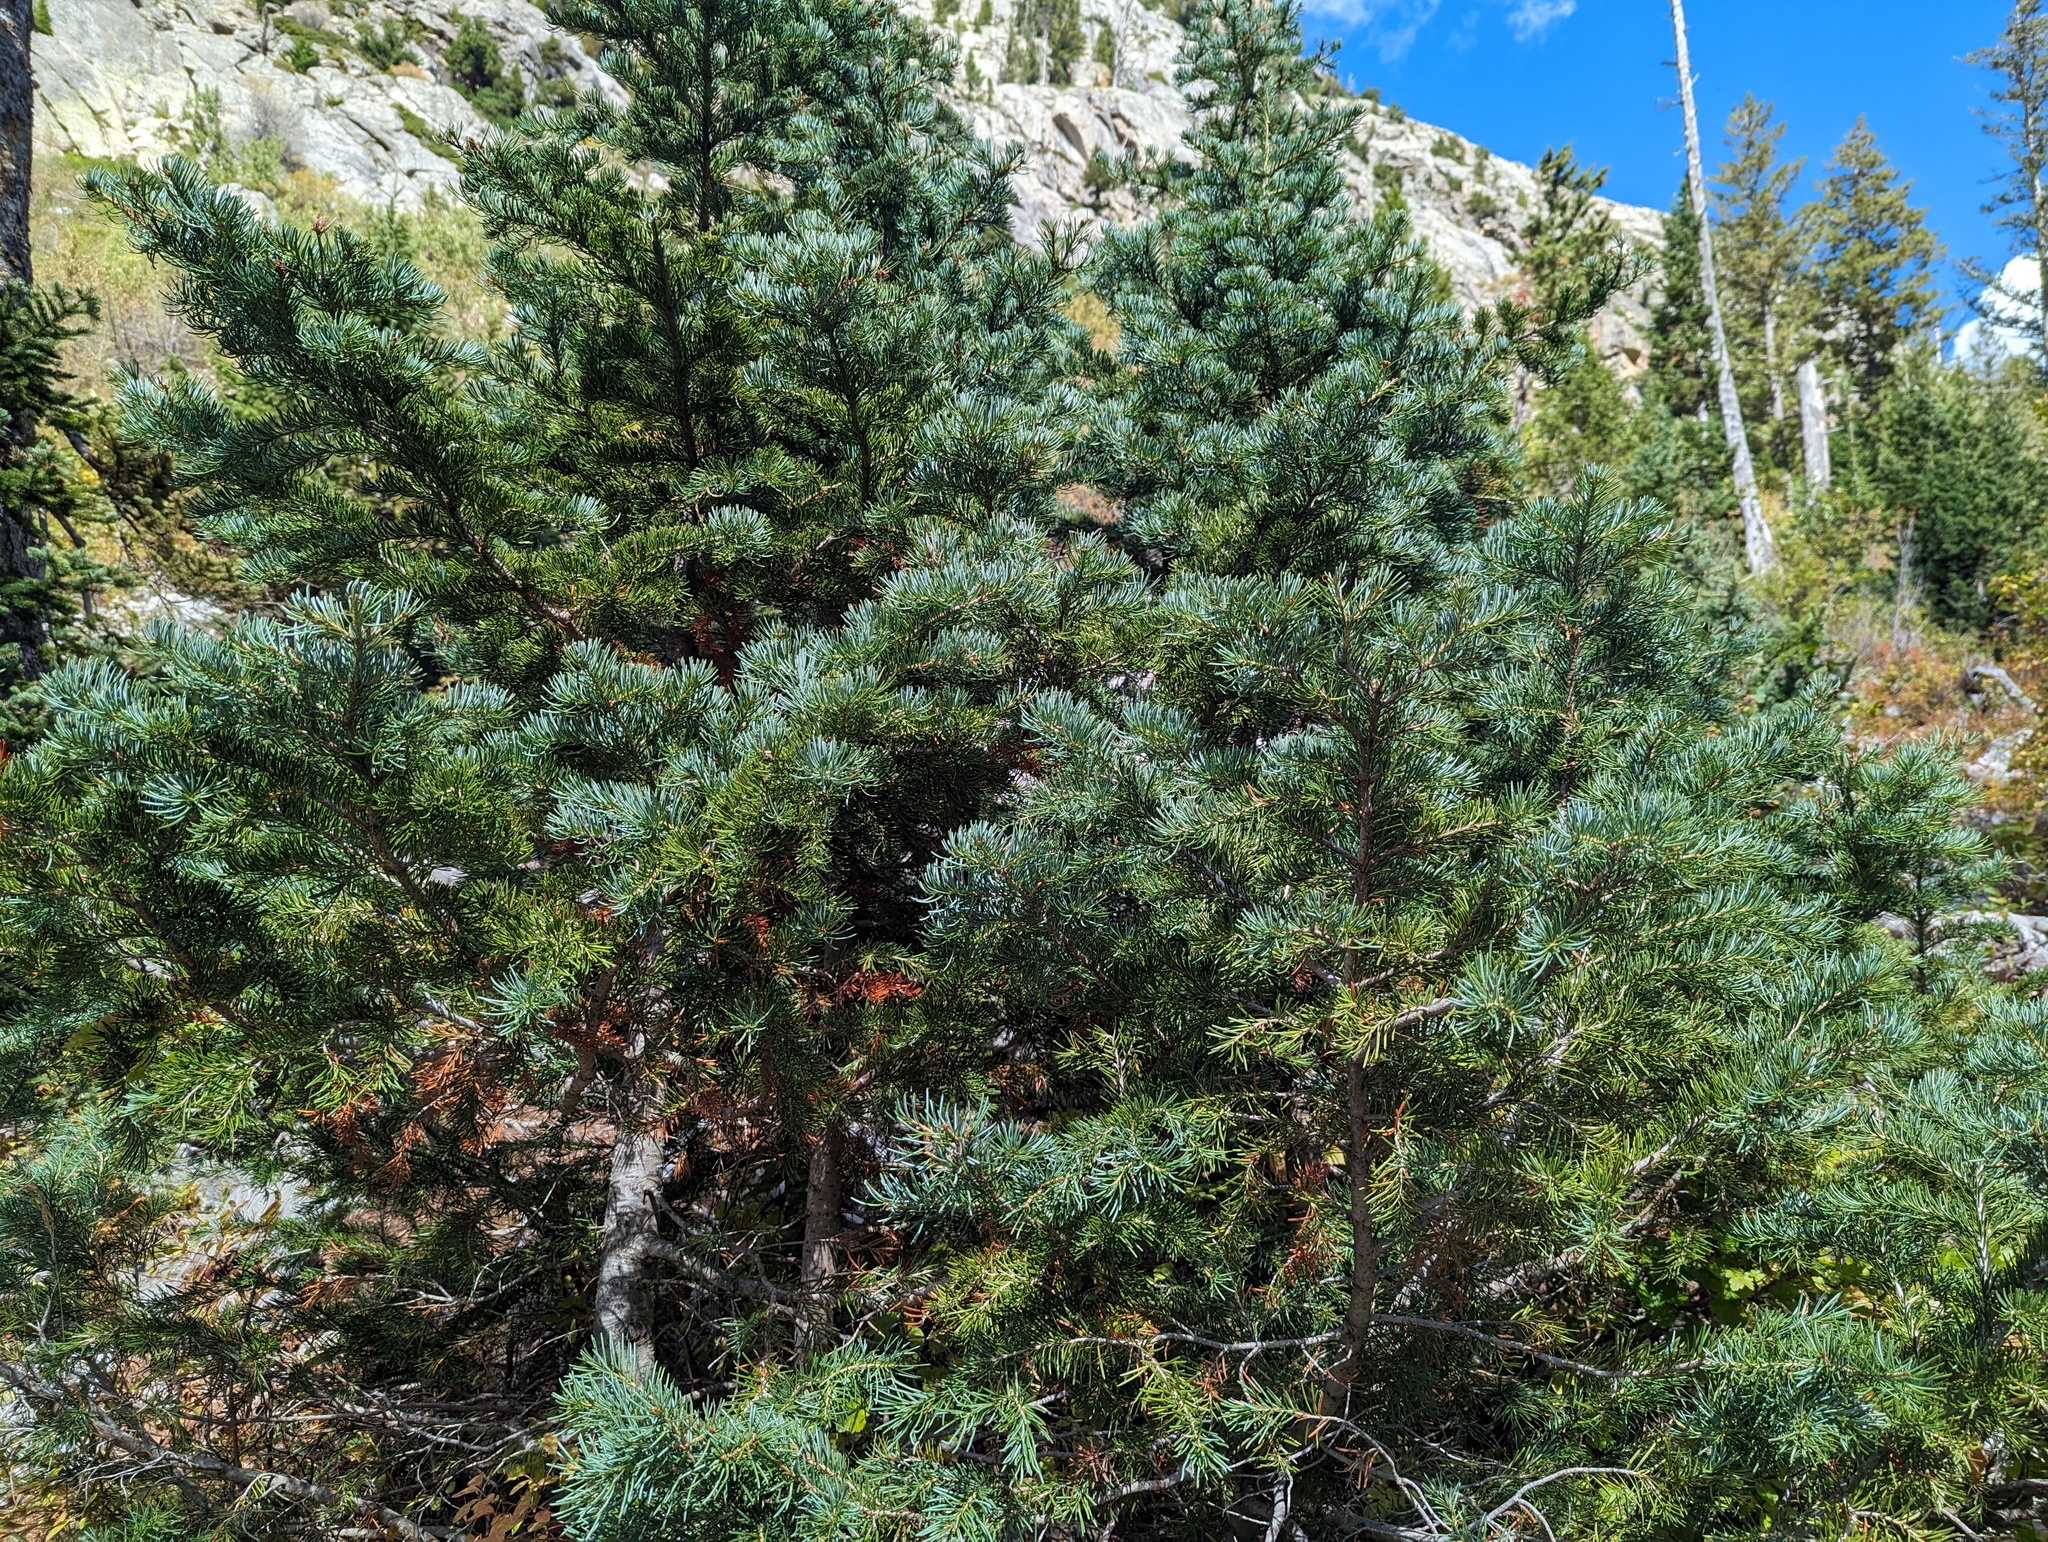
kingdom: Plantae
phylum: Tracheophyta
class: Pinopsida
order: Pinales
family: Pinaceae
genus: Abies
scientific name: Abies lasiocarpa
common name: Subalpine fir
